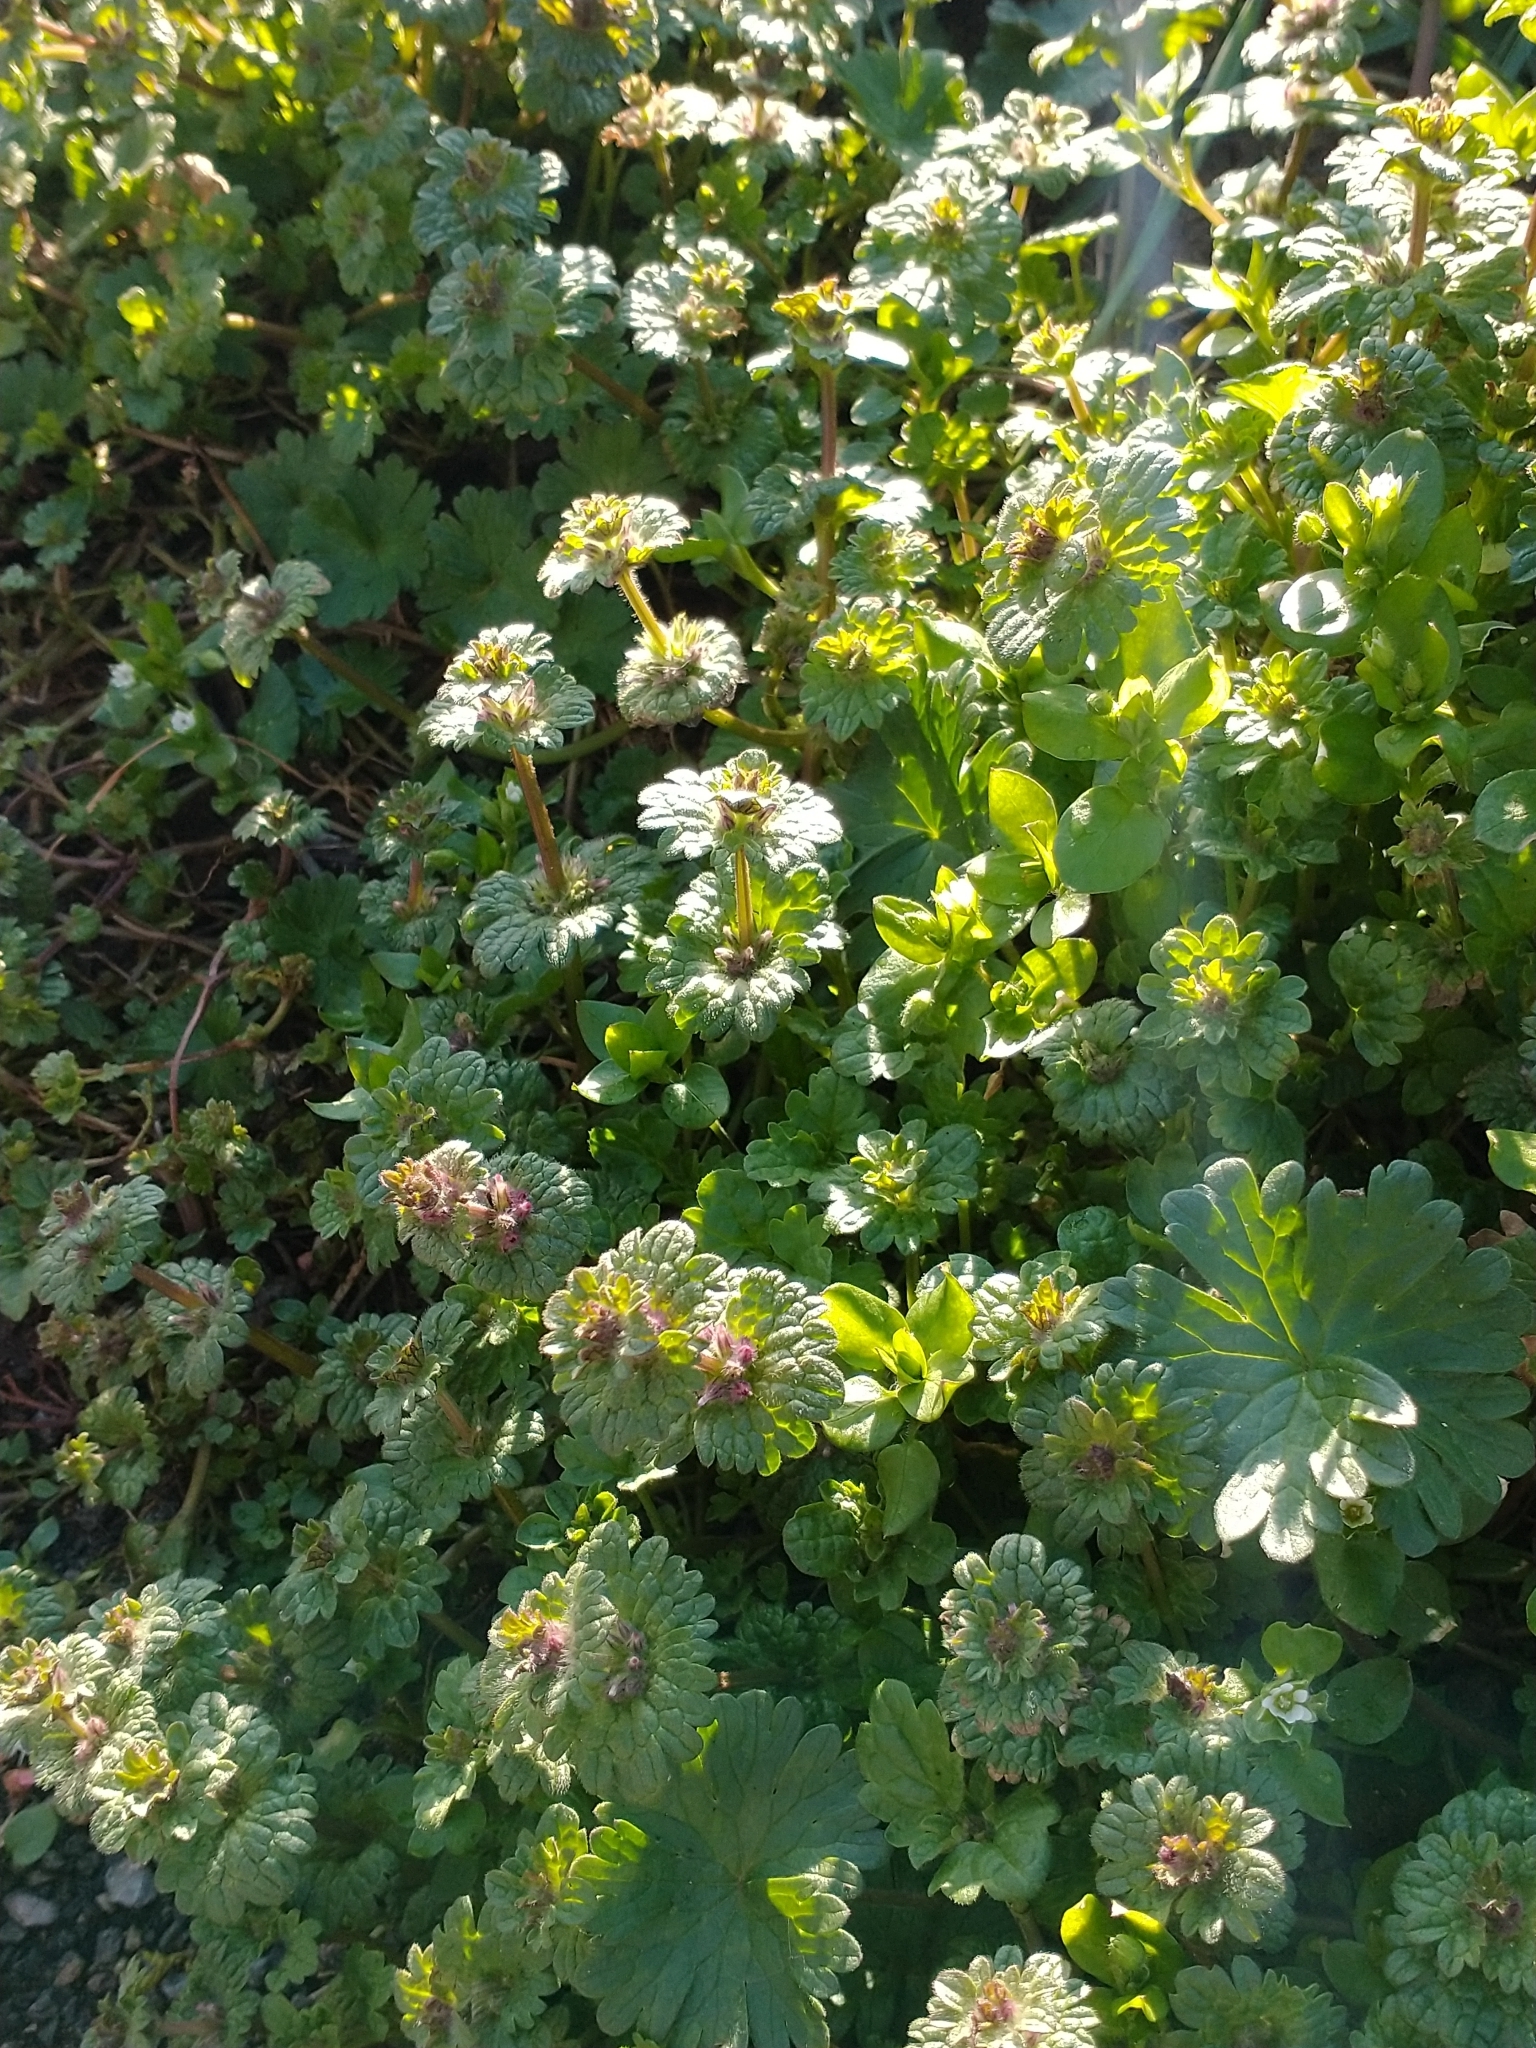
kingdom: Plantae
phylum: Tracheophyta
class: Magnoliopsida
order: Lamiales
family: Lamiaceae
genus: Lamium
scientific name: Lamium amplexicaule
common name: Henbit dead-nettle
